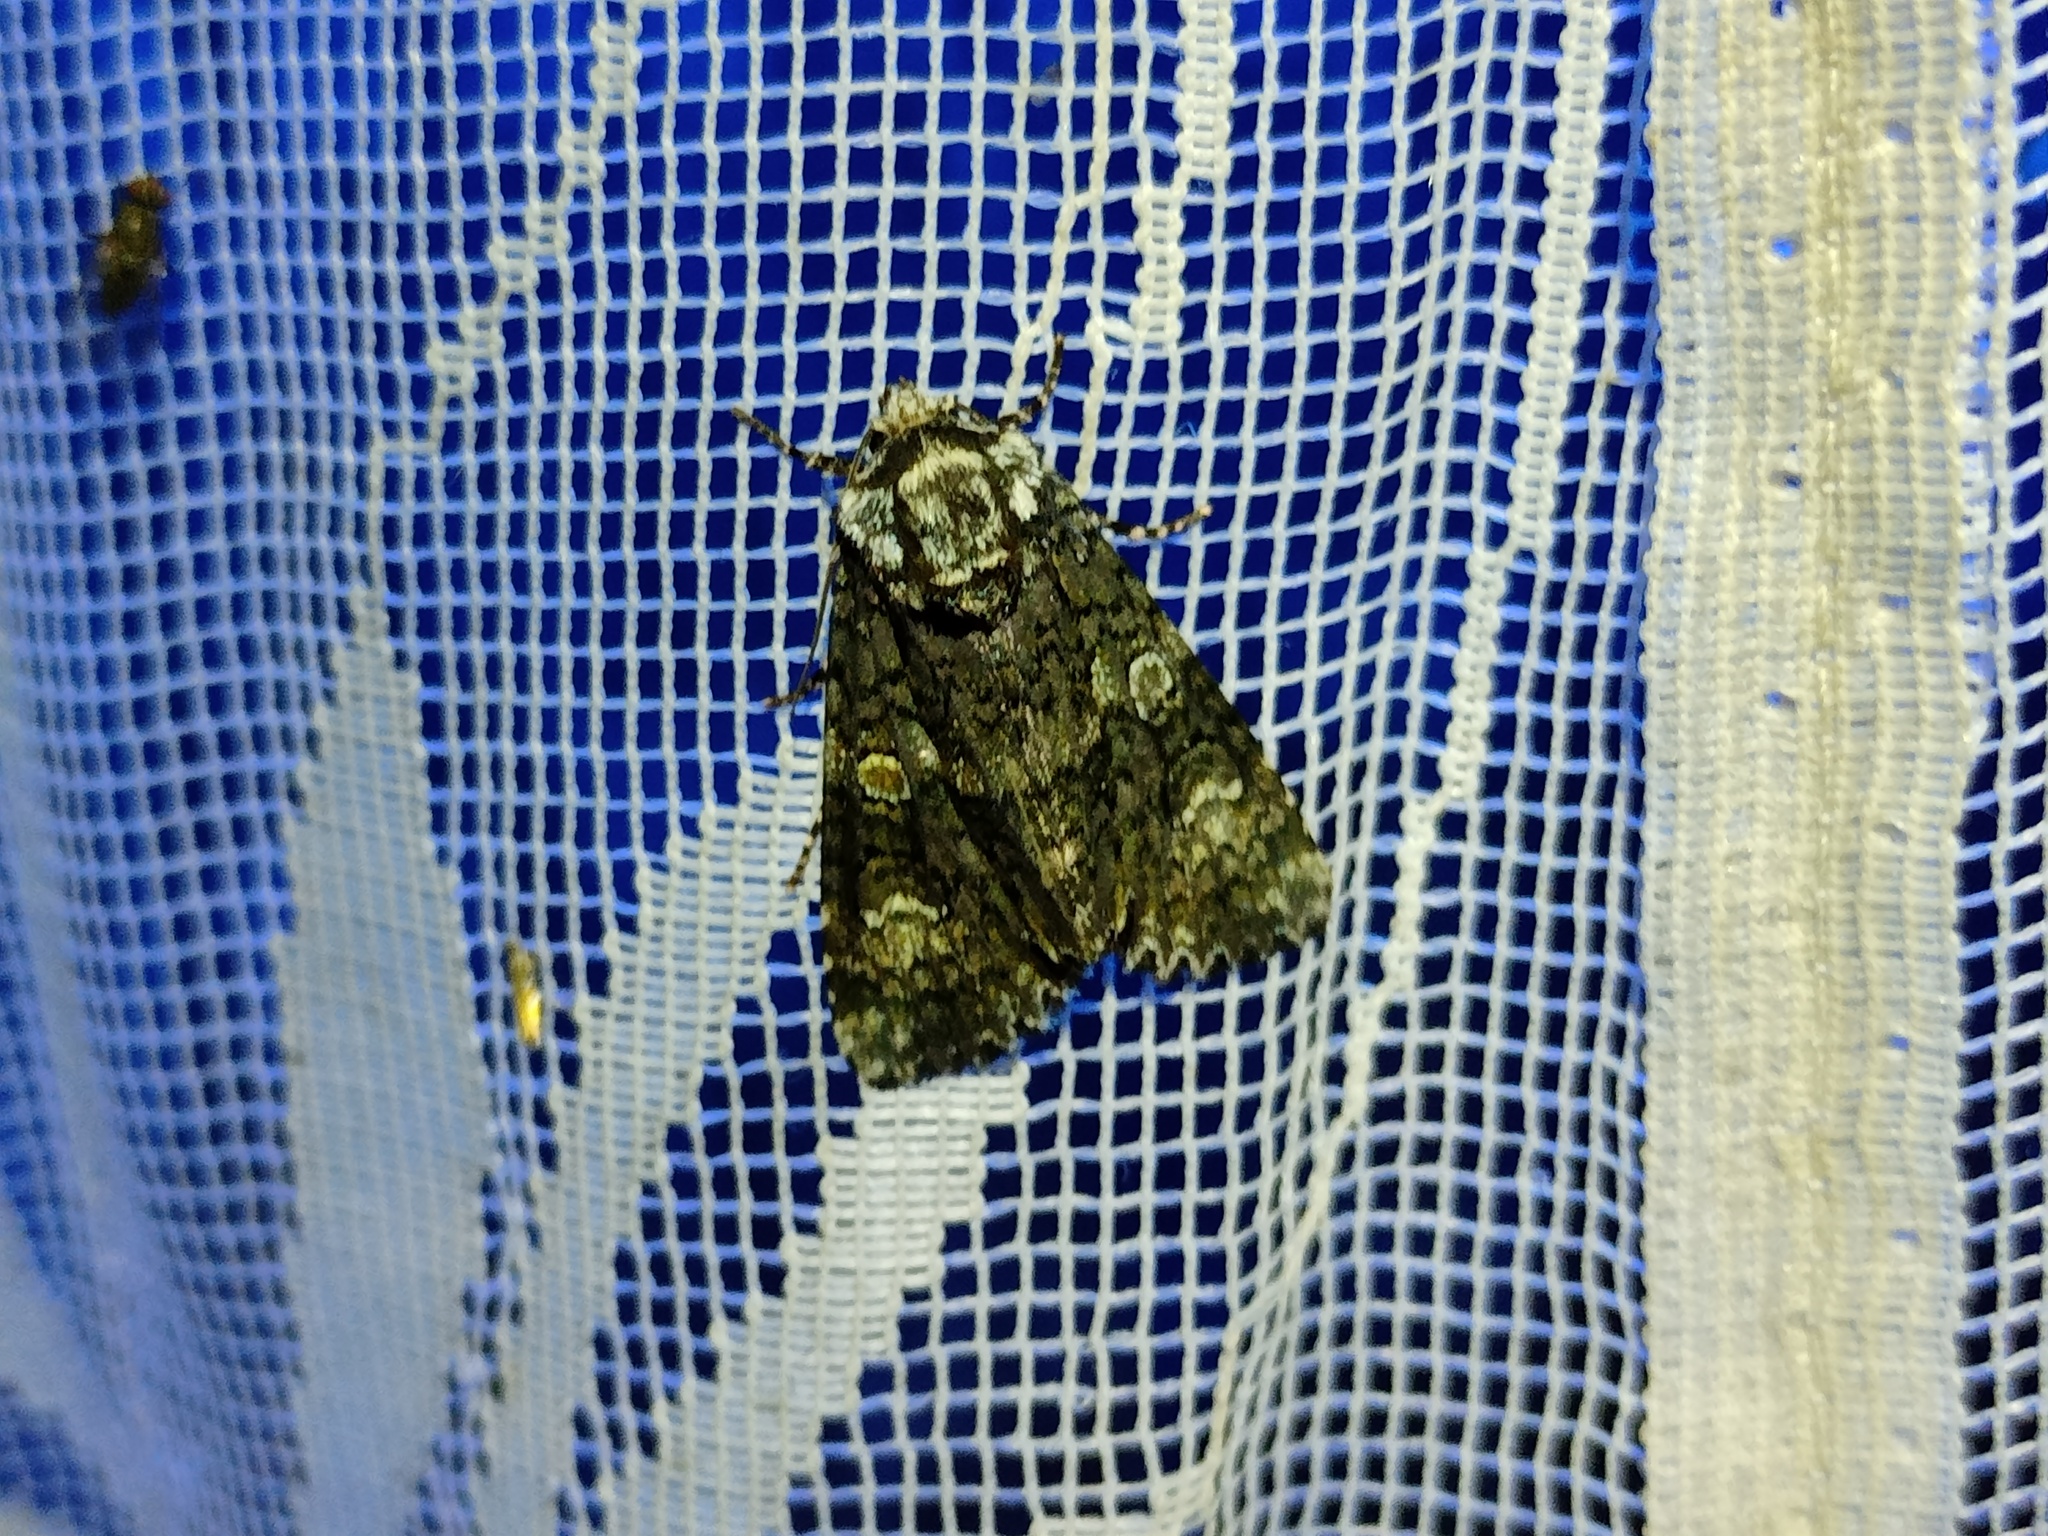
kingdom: Animalia
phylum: Arthropoda
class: Insecta
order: Lepidoptera
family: Noctuidae
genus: Craniophora
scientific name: Craniophora ligustri
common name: Coronet
